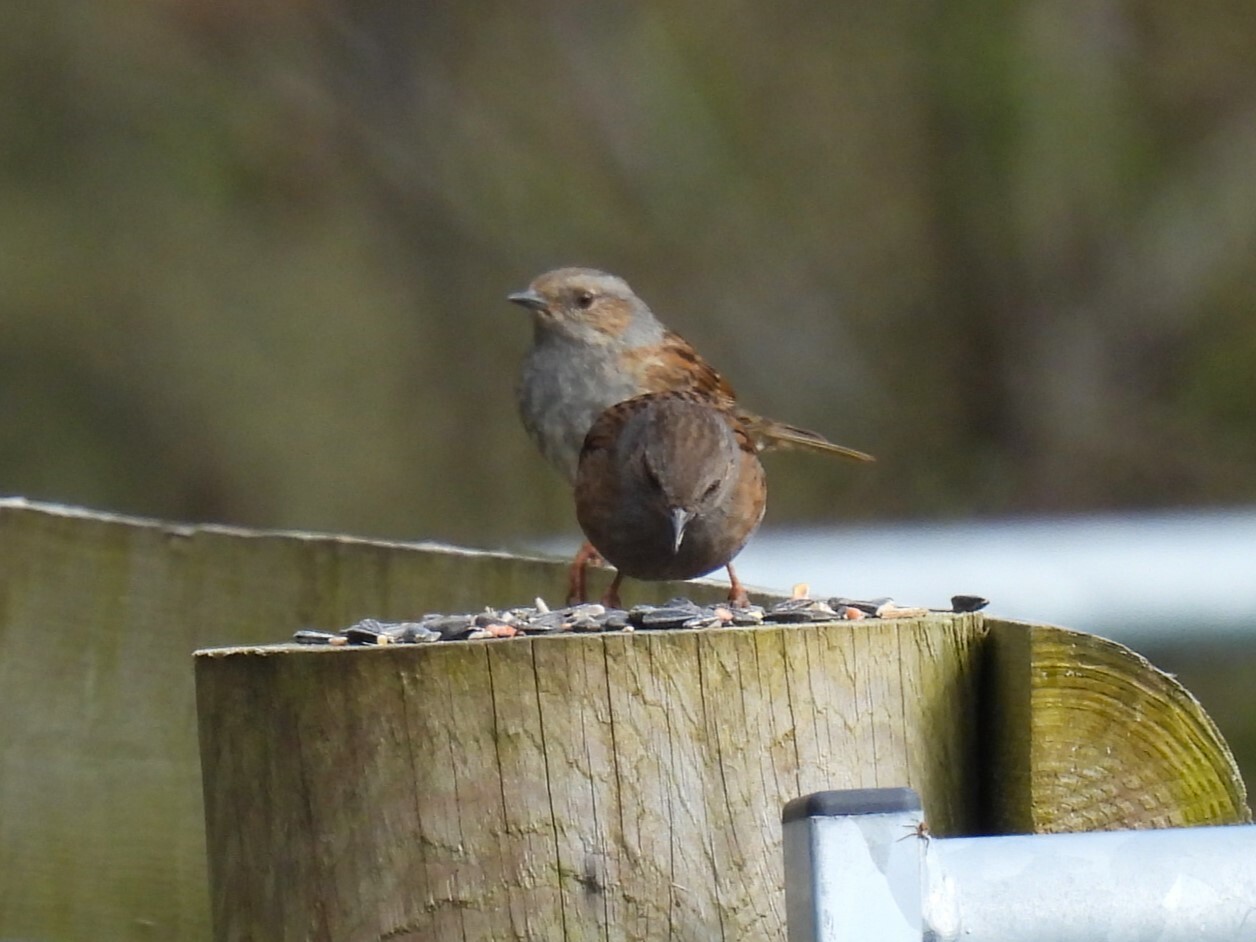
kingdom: Animalia
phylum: Chordata
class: Aves
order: Passeriformes
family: Prunellidae
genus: Prunella
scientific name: Prunella modularis
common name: Dunnock
